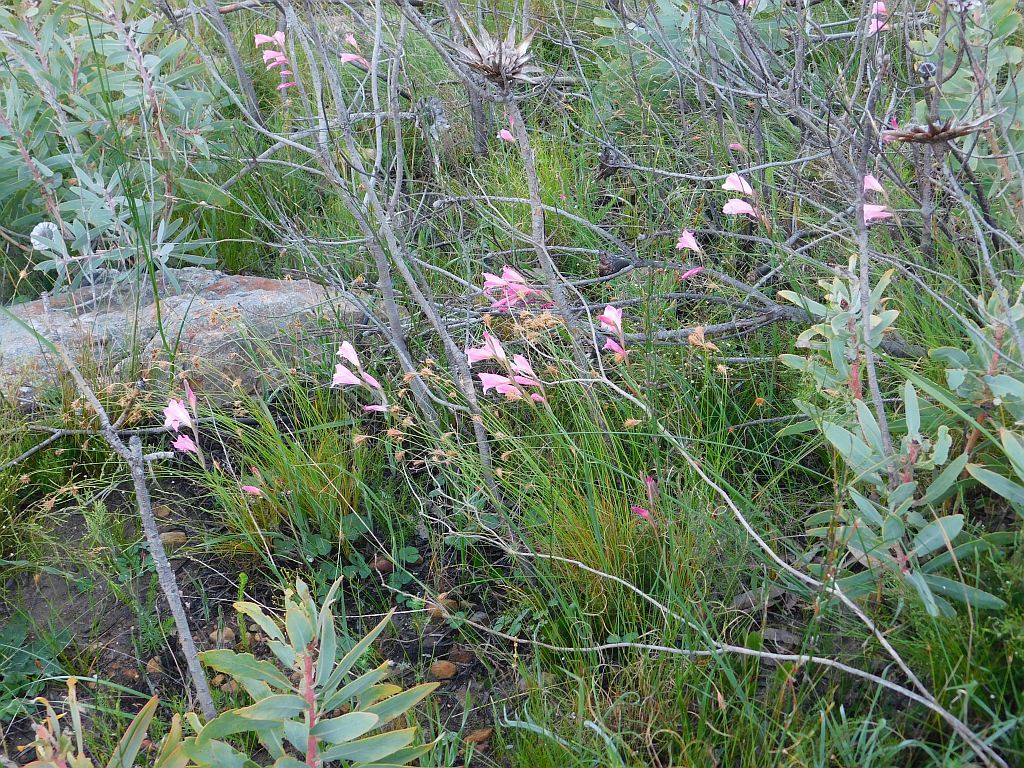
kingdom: Plantae
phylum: Tracheophyta
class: Liliopsida
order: Asparagales
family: Iridaceae
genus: Gladiolus
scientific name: Gladiolus hirsutus
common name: Small pink afrikaner
